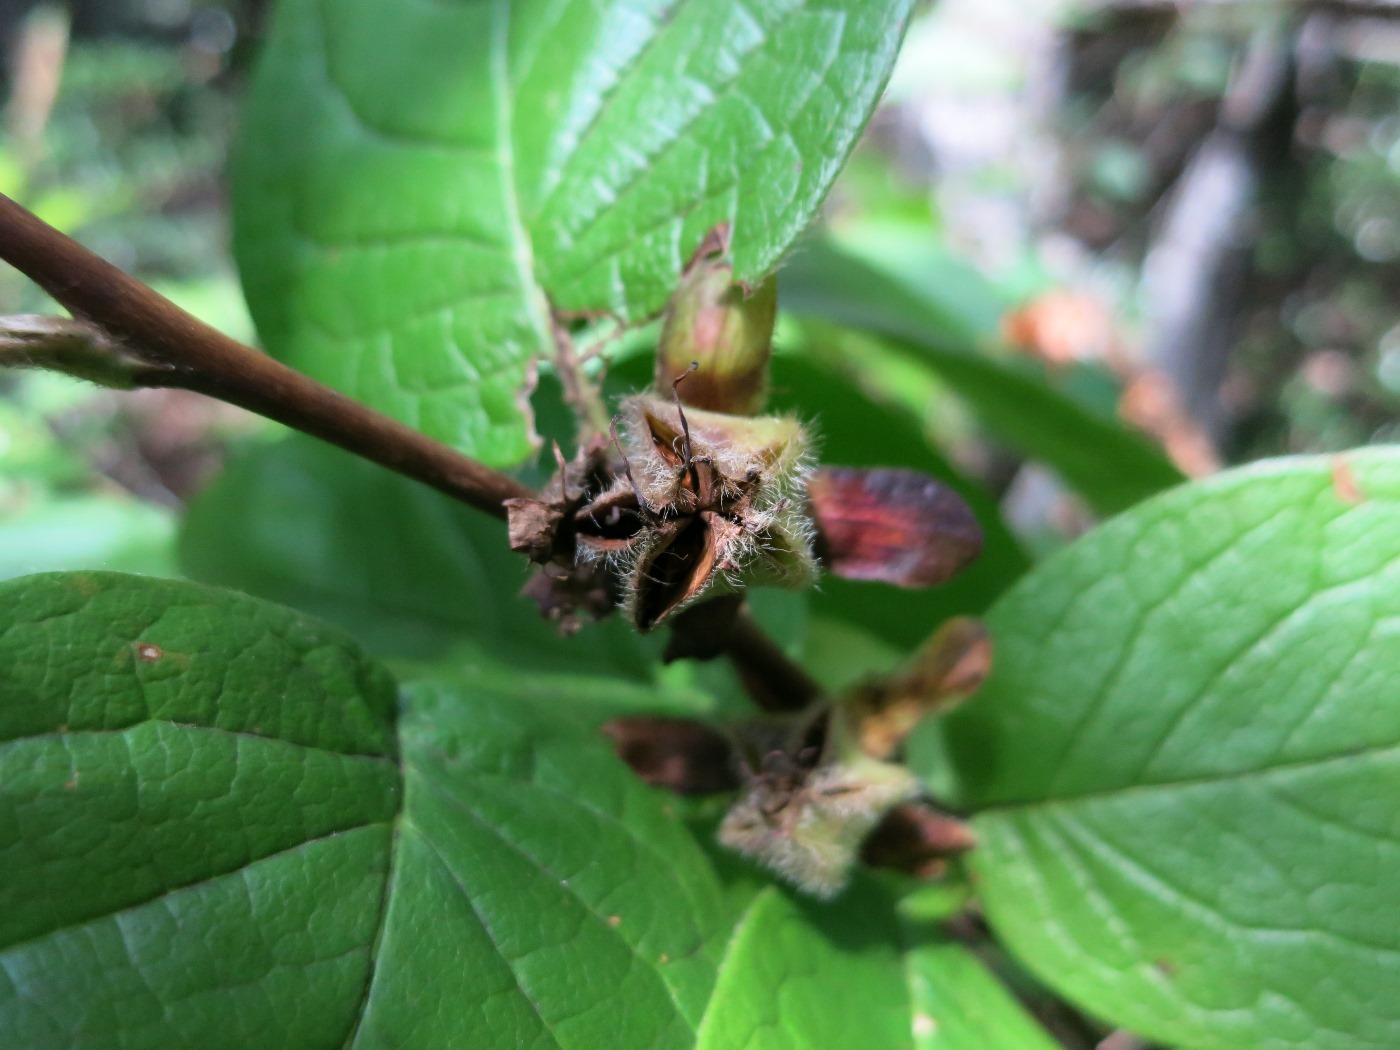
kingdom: Plantae
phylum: Tracheophyta
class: Magnoliopsida
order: Ericales
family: Theaceae
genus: Stewartia
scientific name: Stewartia ovata
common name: Mountain camellia
